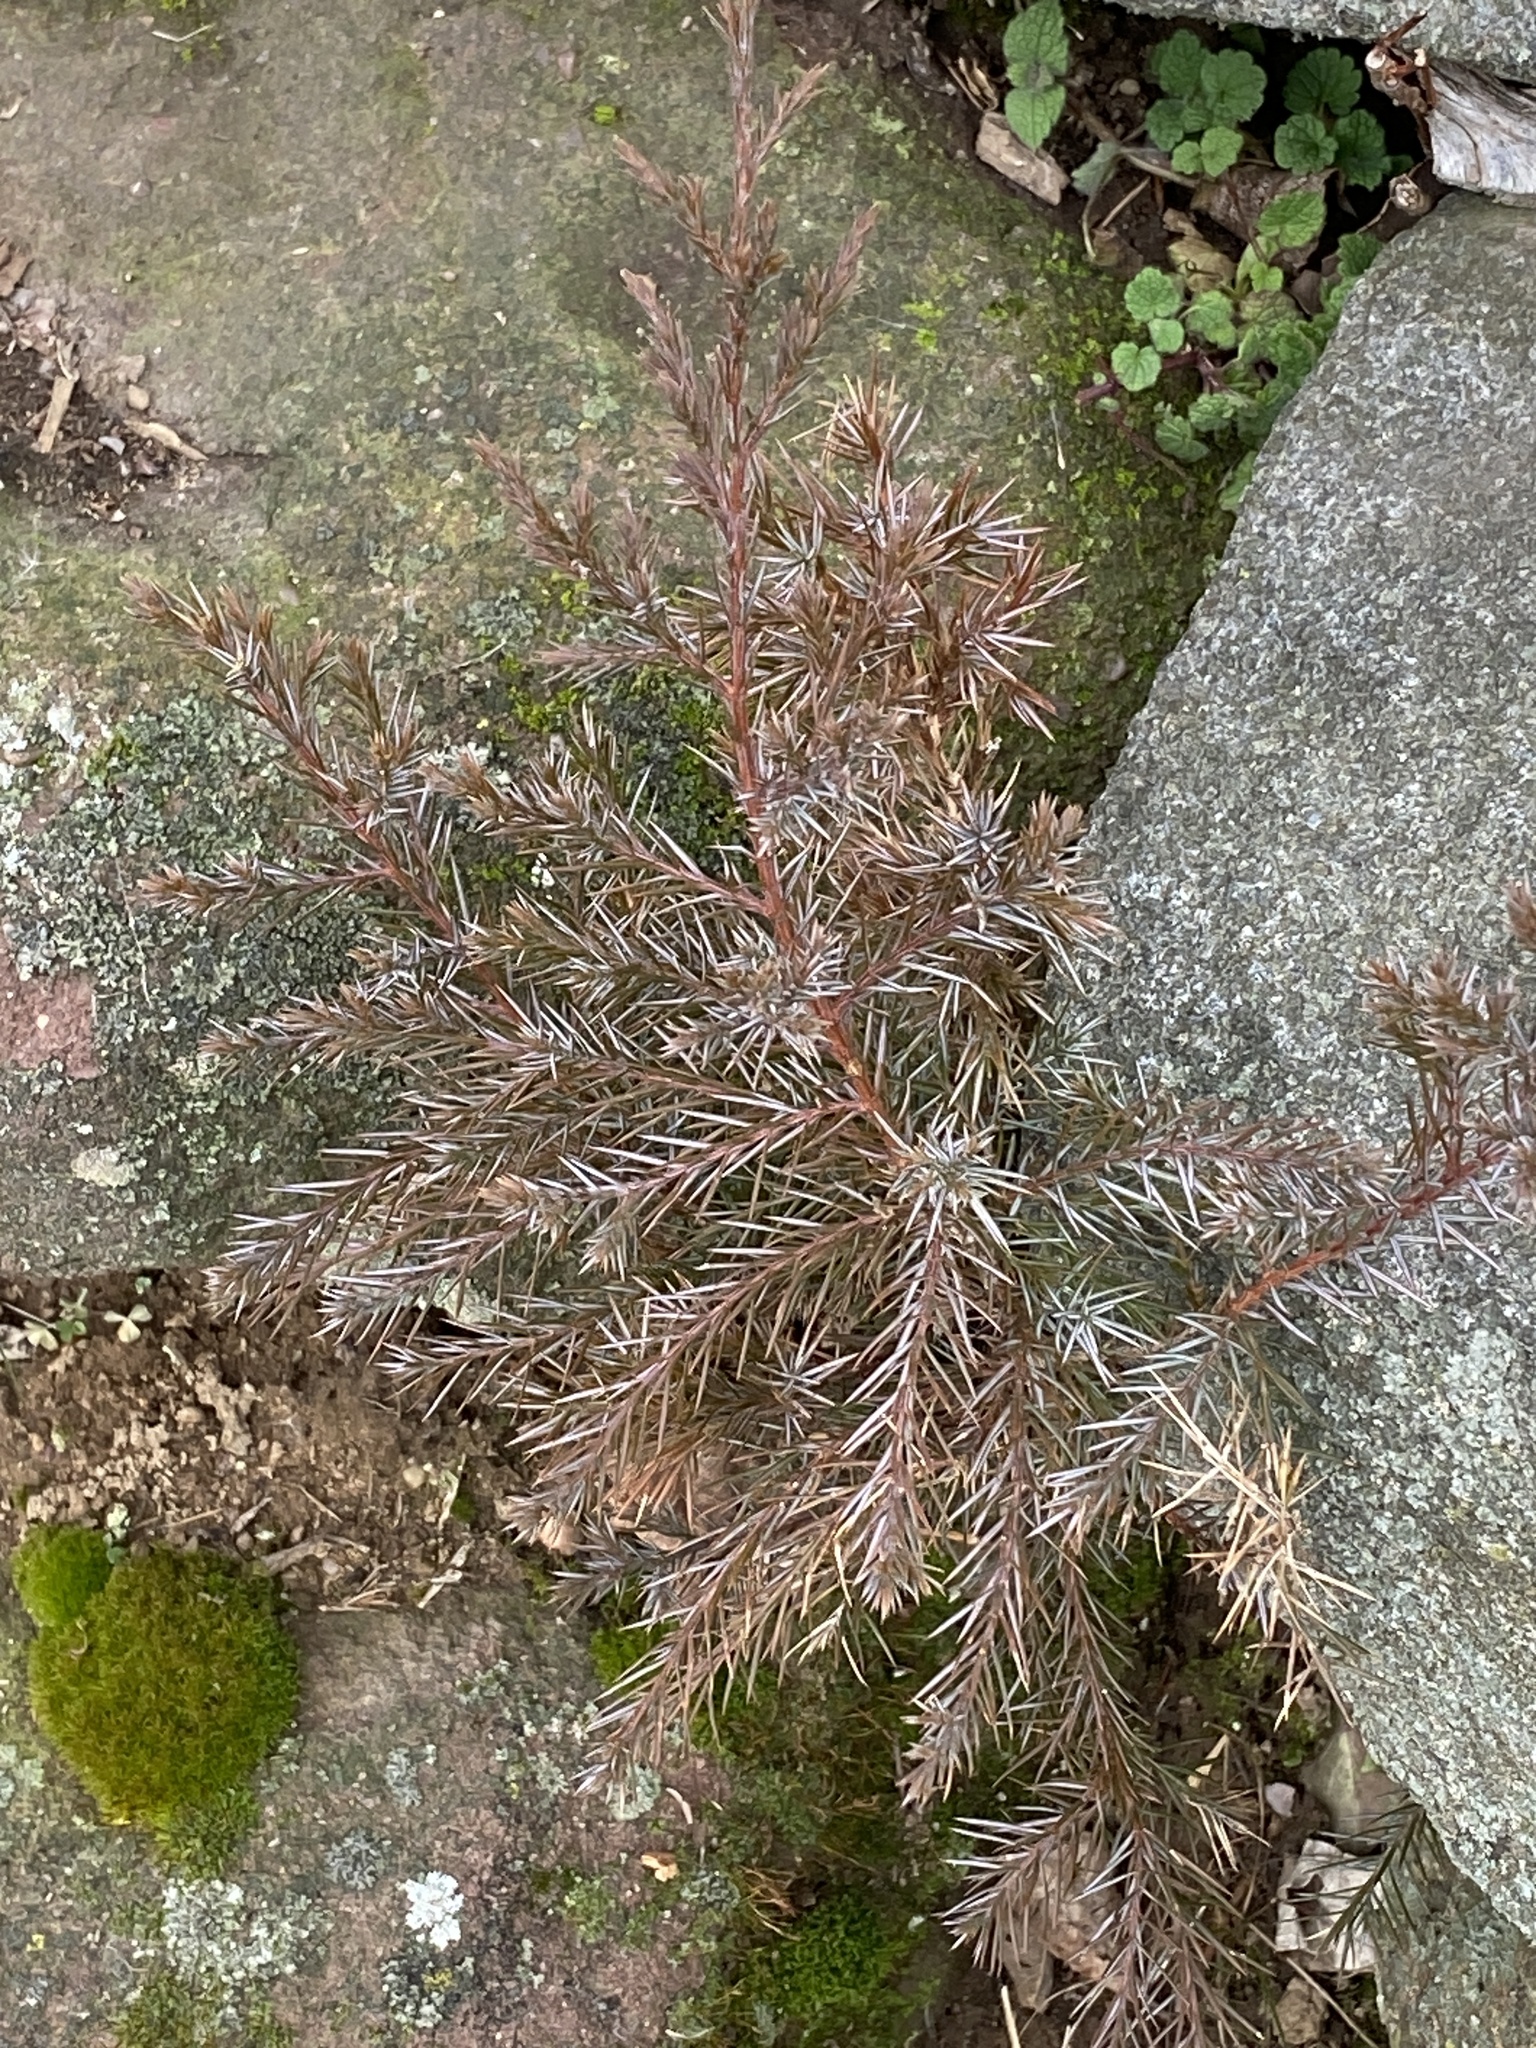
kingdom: Plantae
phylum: Tracheophyta
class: Pinopsida
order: Pinales
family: Cupressaceae
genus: Juniperus
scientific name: Juniperus virginiana
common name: Red juniper
